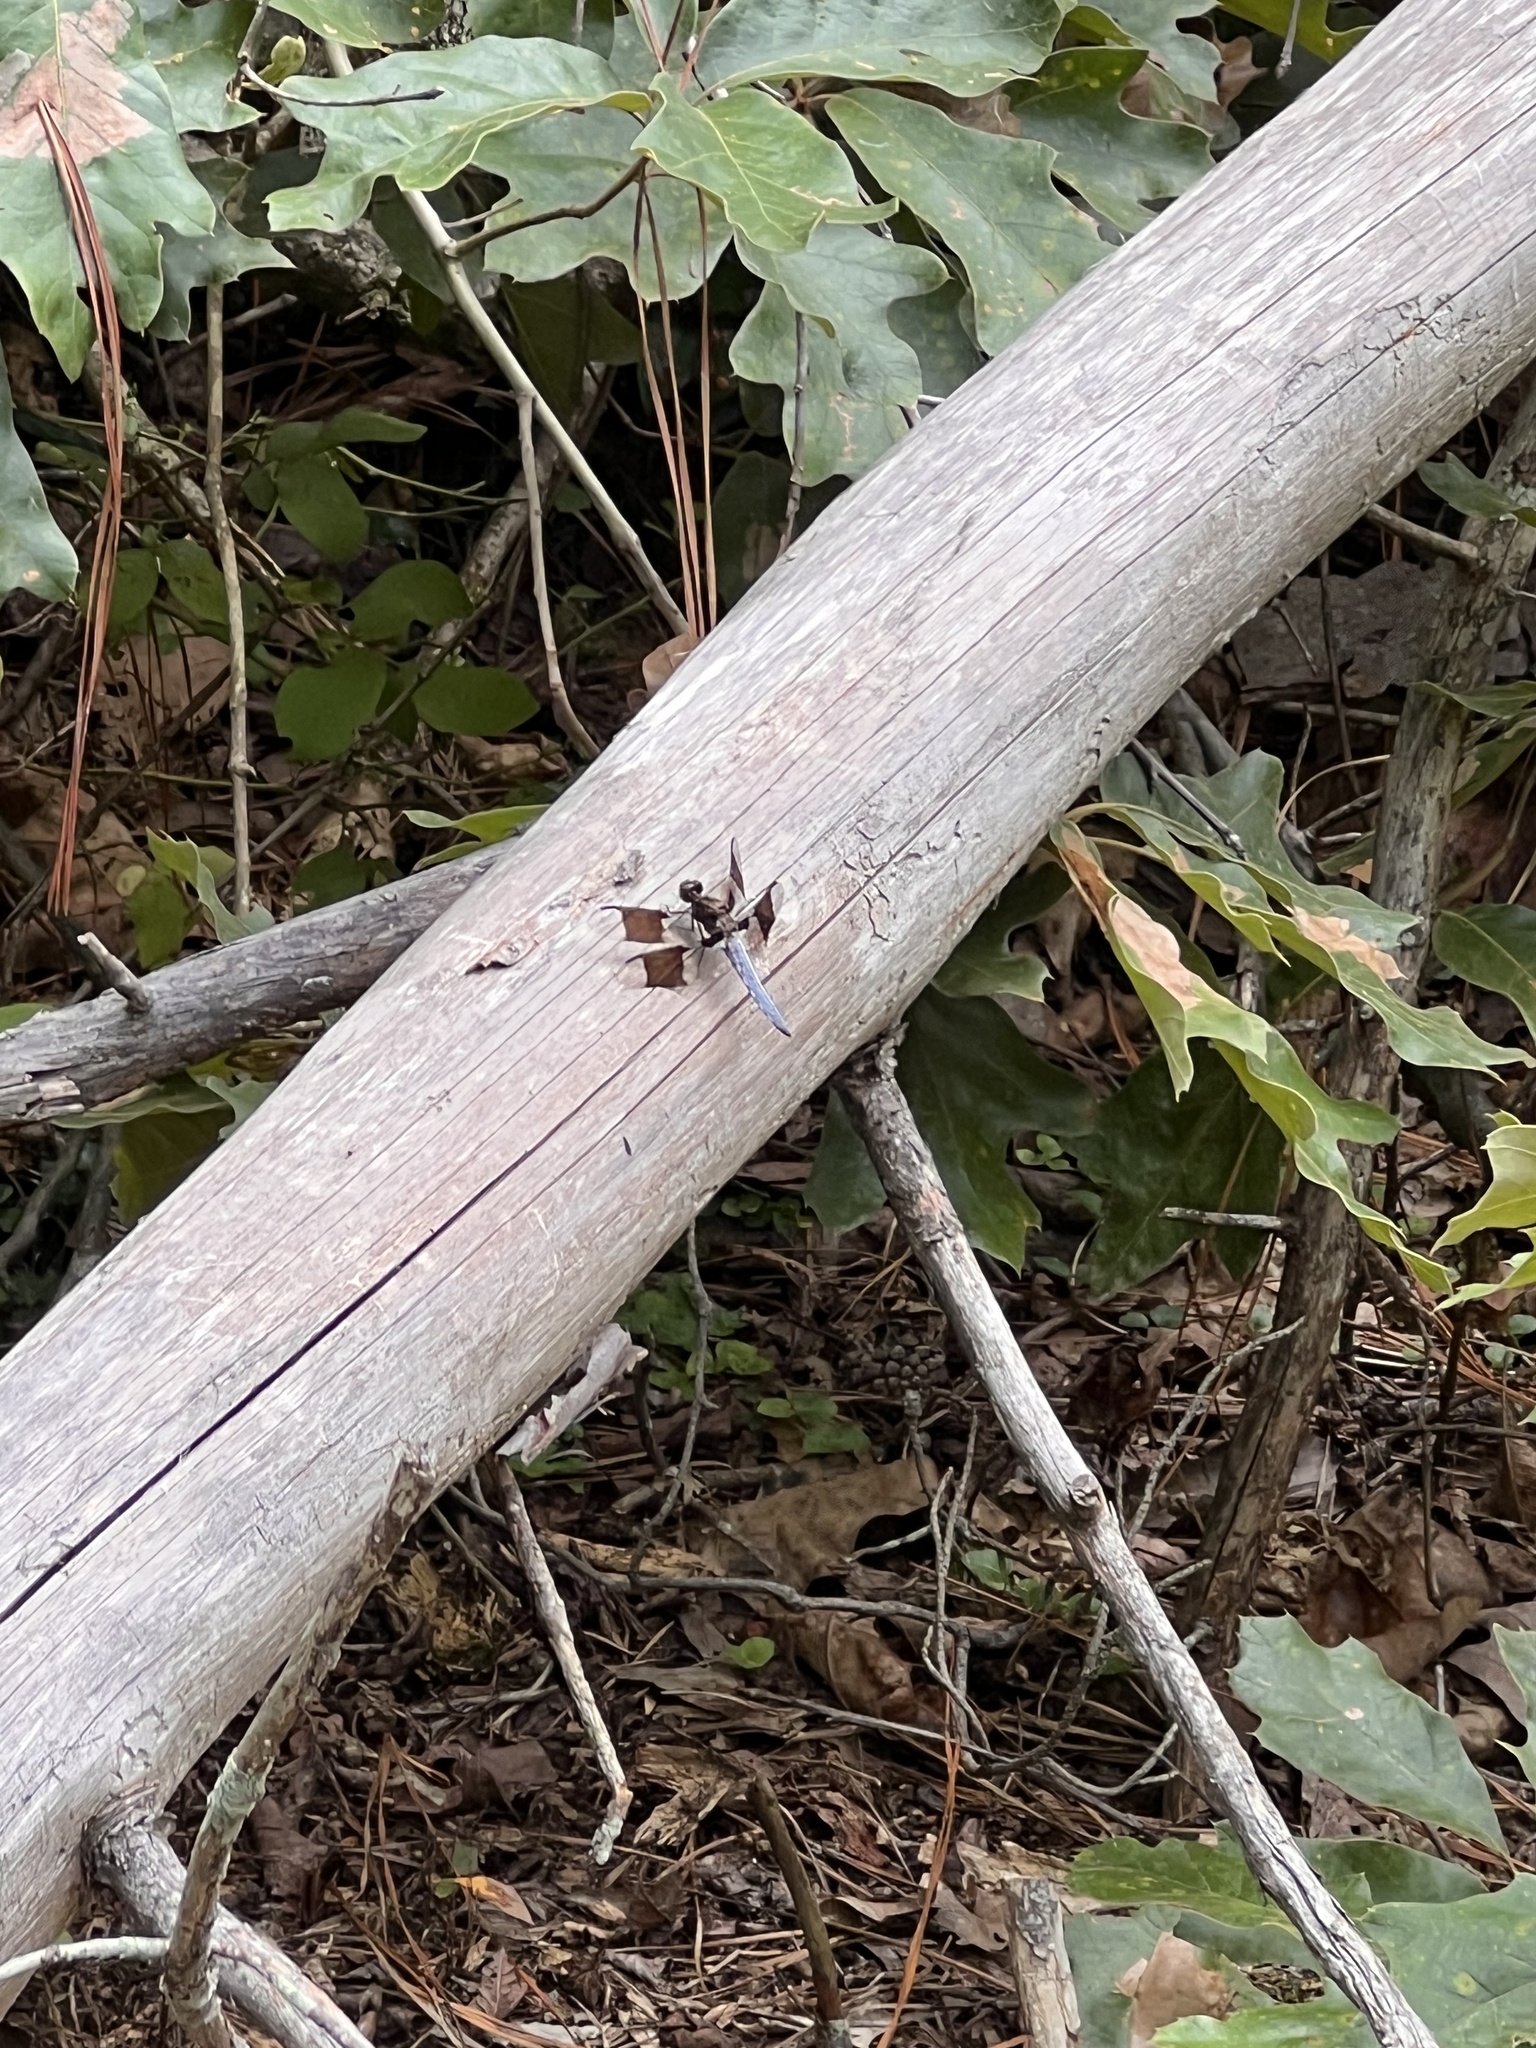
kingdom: Animalia
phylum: Arthropoda
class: Insecta
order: Odonata
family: Libellulidae
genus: Plathemis
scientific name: Plathemis lydia
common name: Common whitetail
